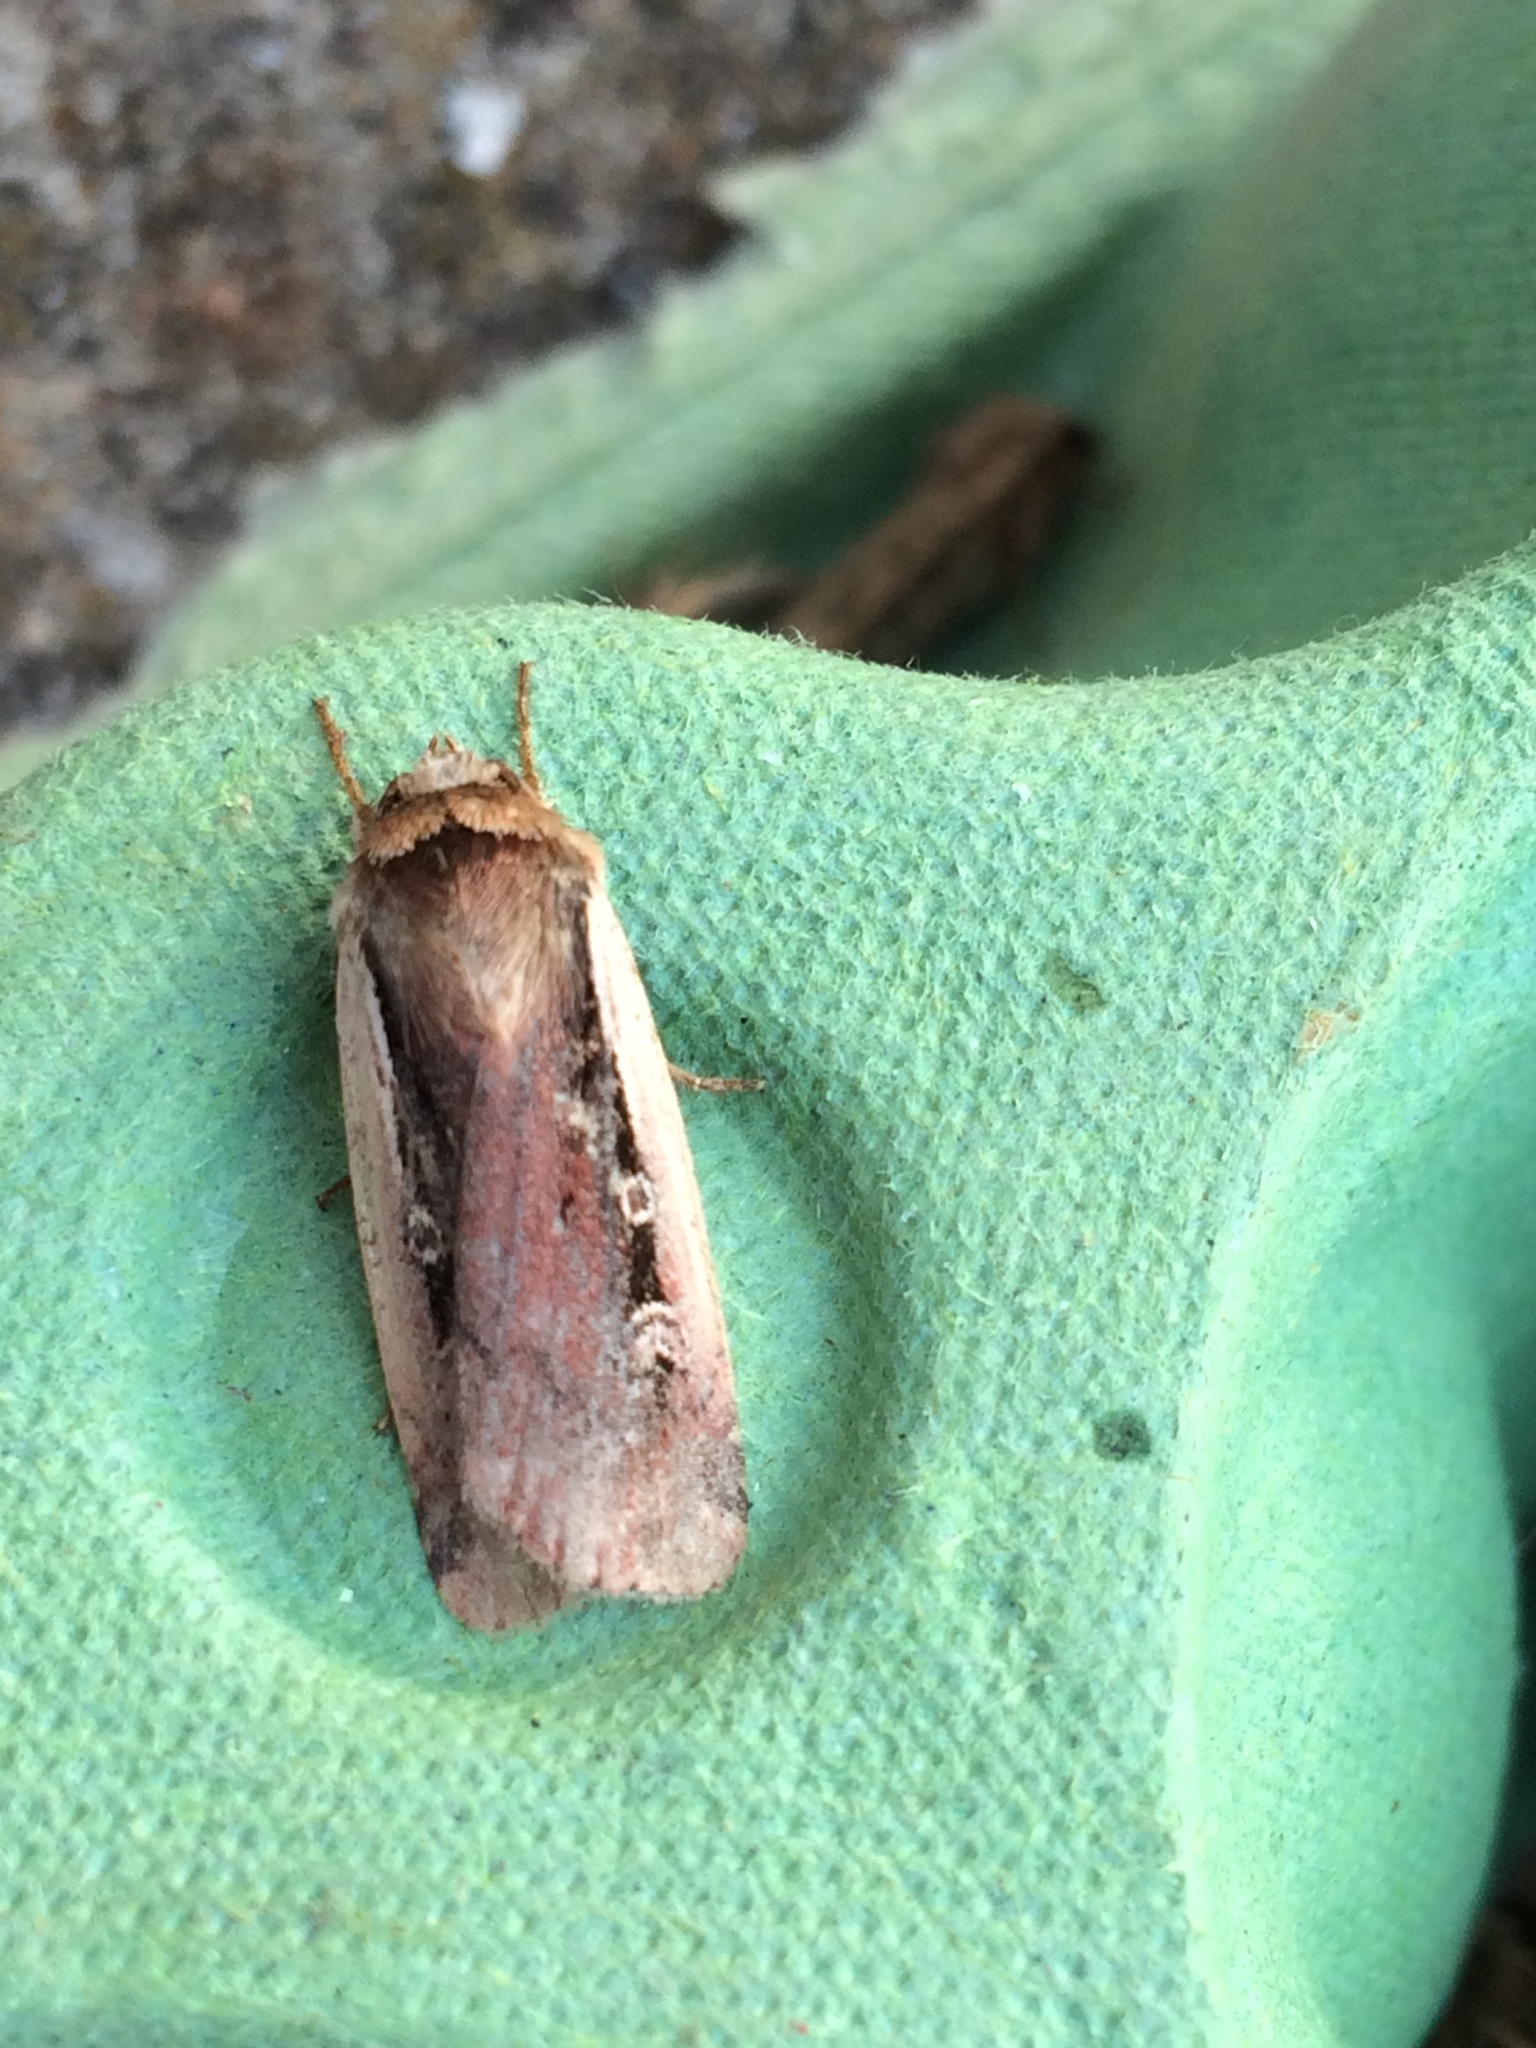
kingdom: Animalia
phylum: Arthropoda
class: Insecta
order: Lepidoptera
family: Noctuidae
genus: Ochropleura
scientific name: Ochropleura plecta
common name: Flame shoulder
